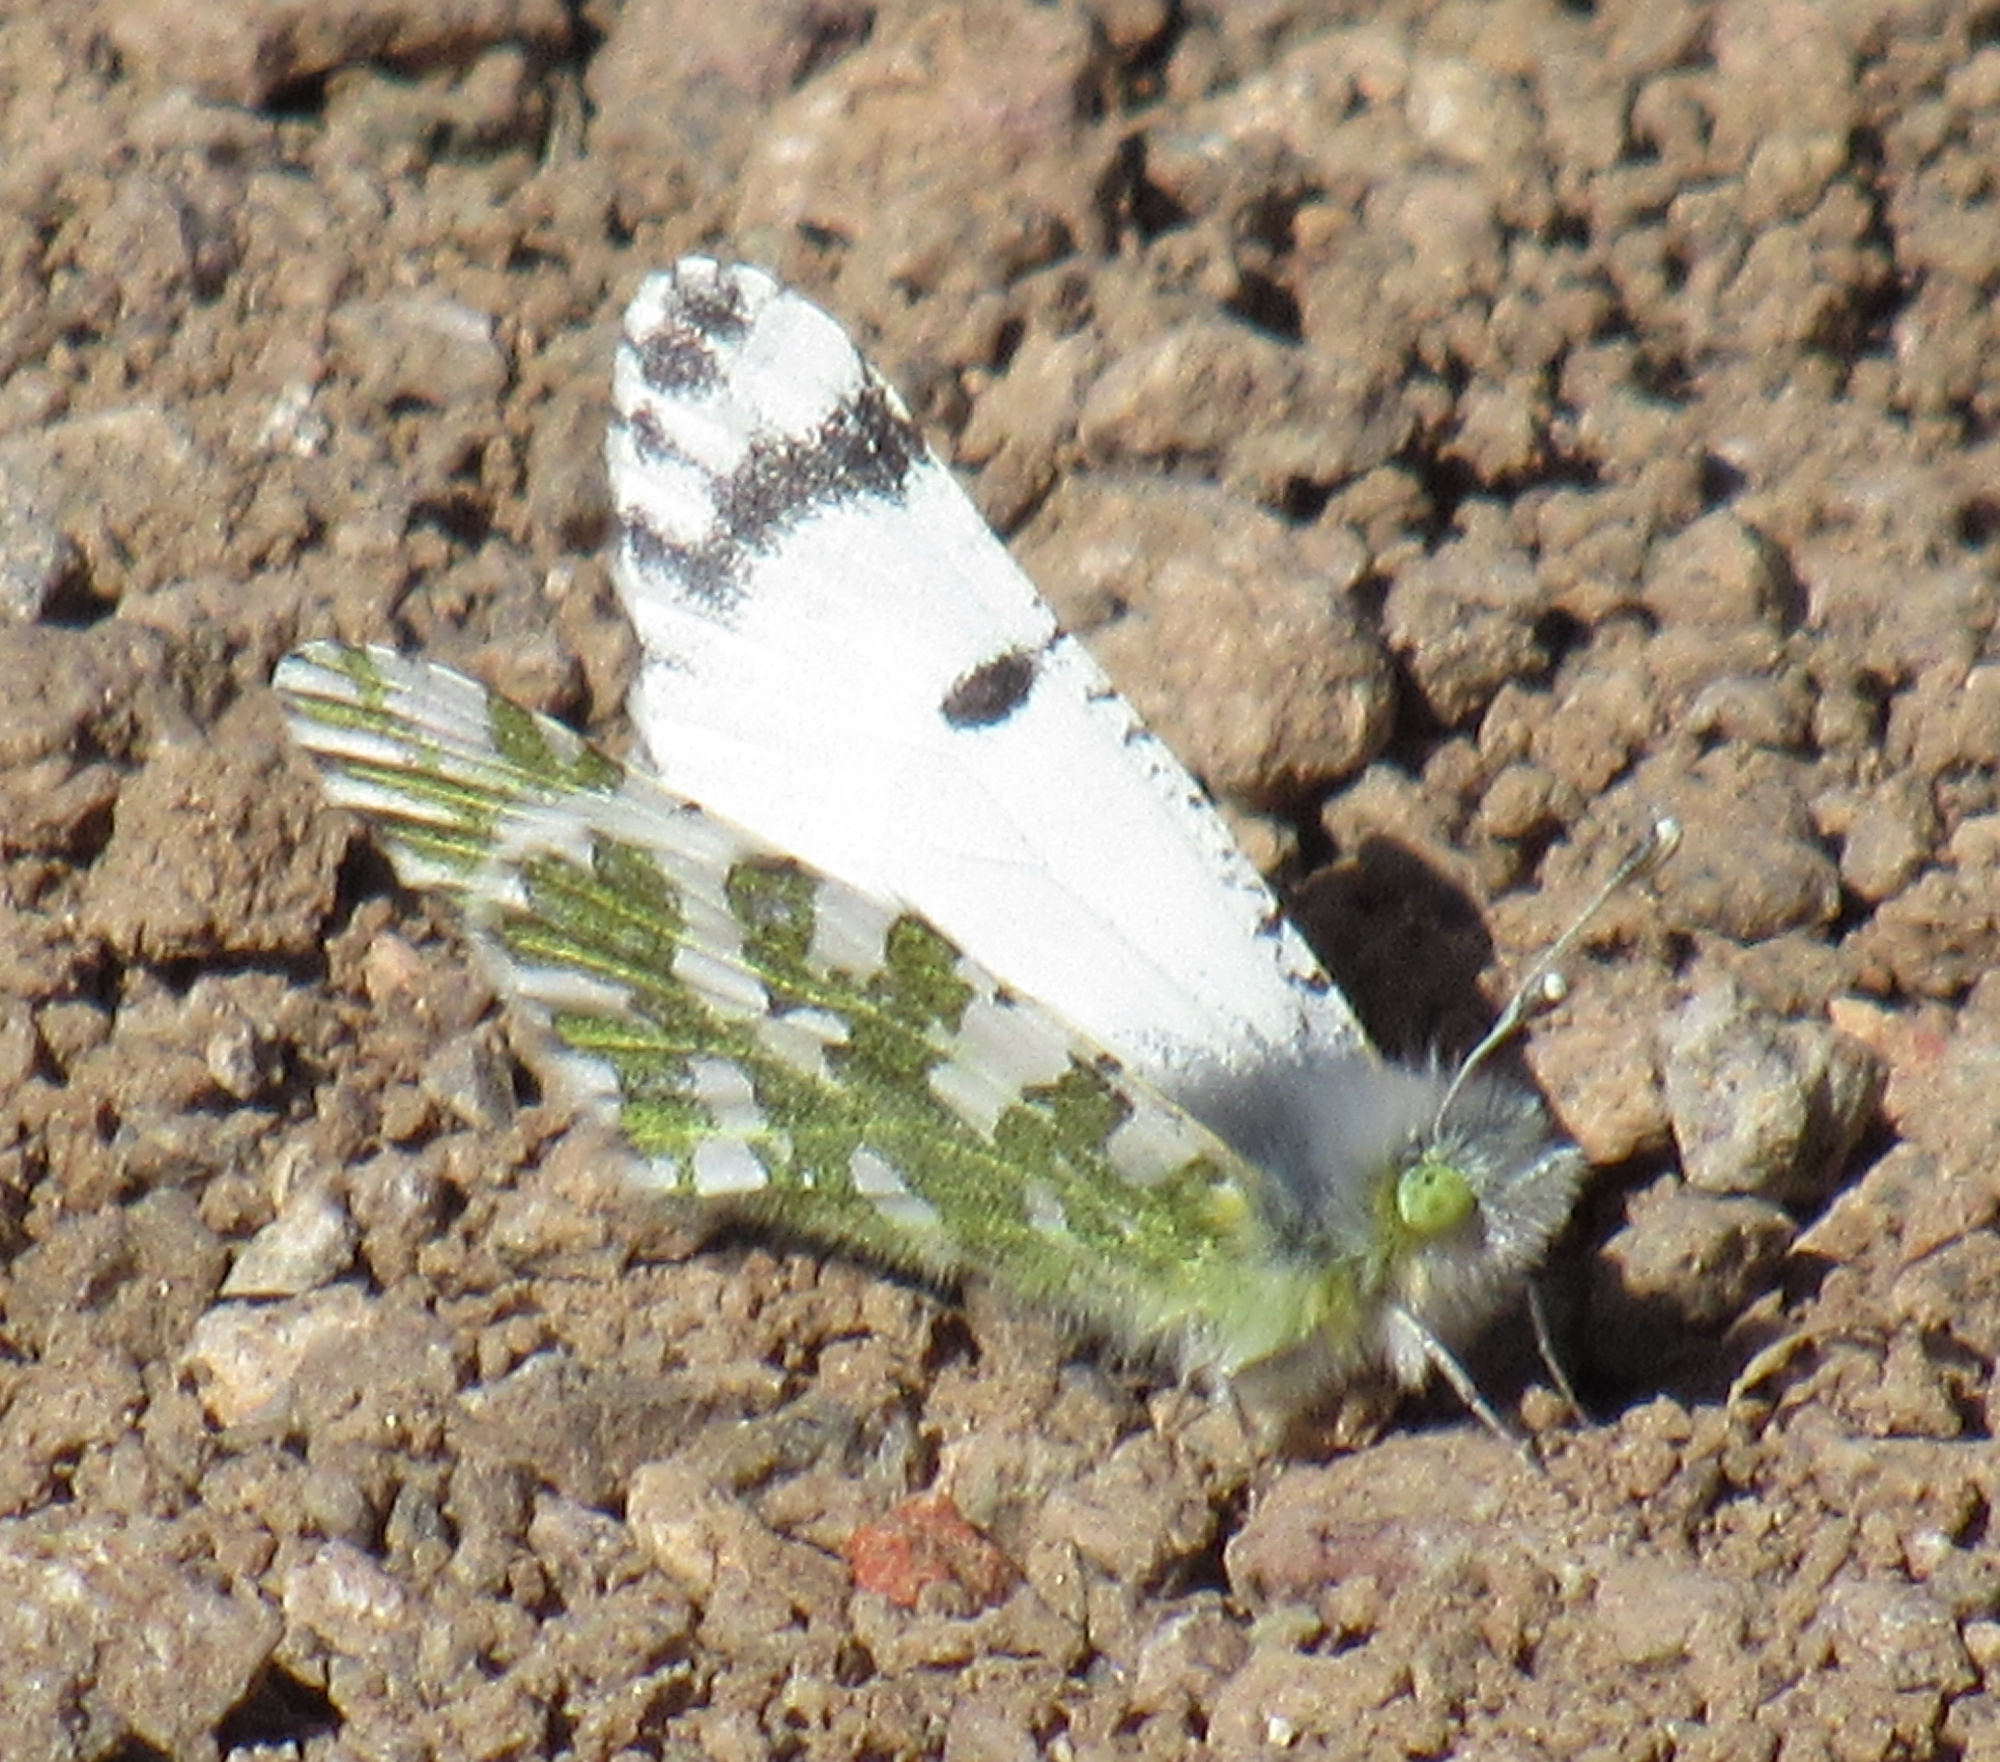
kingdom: Animalia
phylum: Arthropoda
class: Insecta
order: Lepidoptera
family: Pieridae
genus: Euchloe
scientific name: Euchloe lotta
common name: Desert marble
